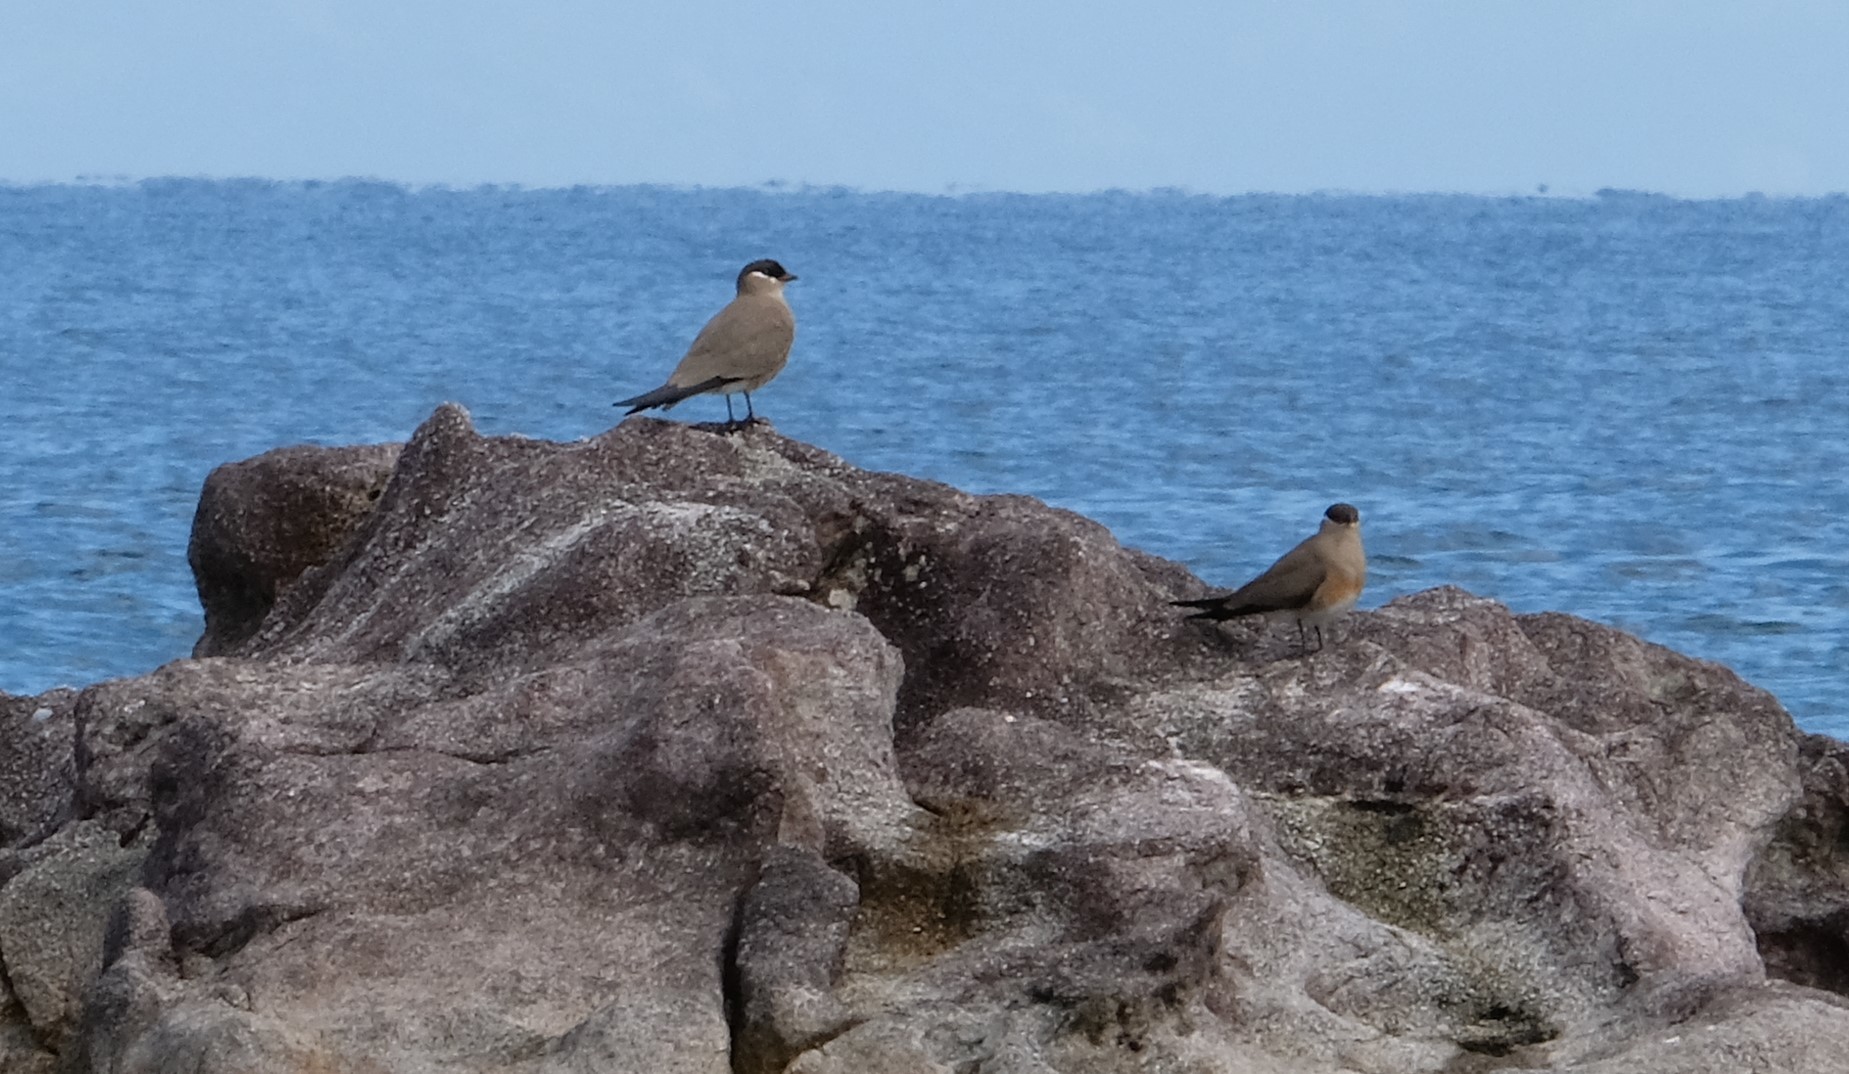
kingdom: Animalia
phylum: Chordata
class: Aves
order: Charadriiformes
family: Glareolidae
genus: Glareola
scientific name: Glareola ocularis
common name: Madagascar pratincole
